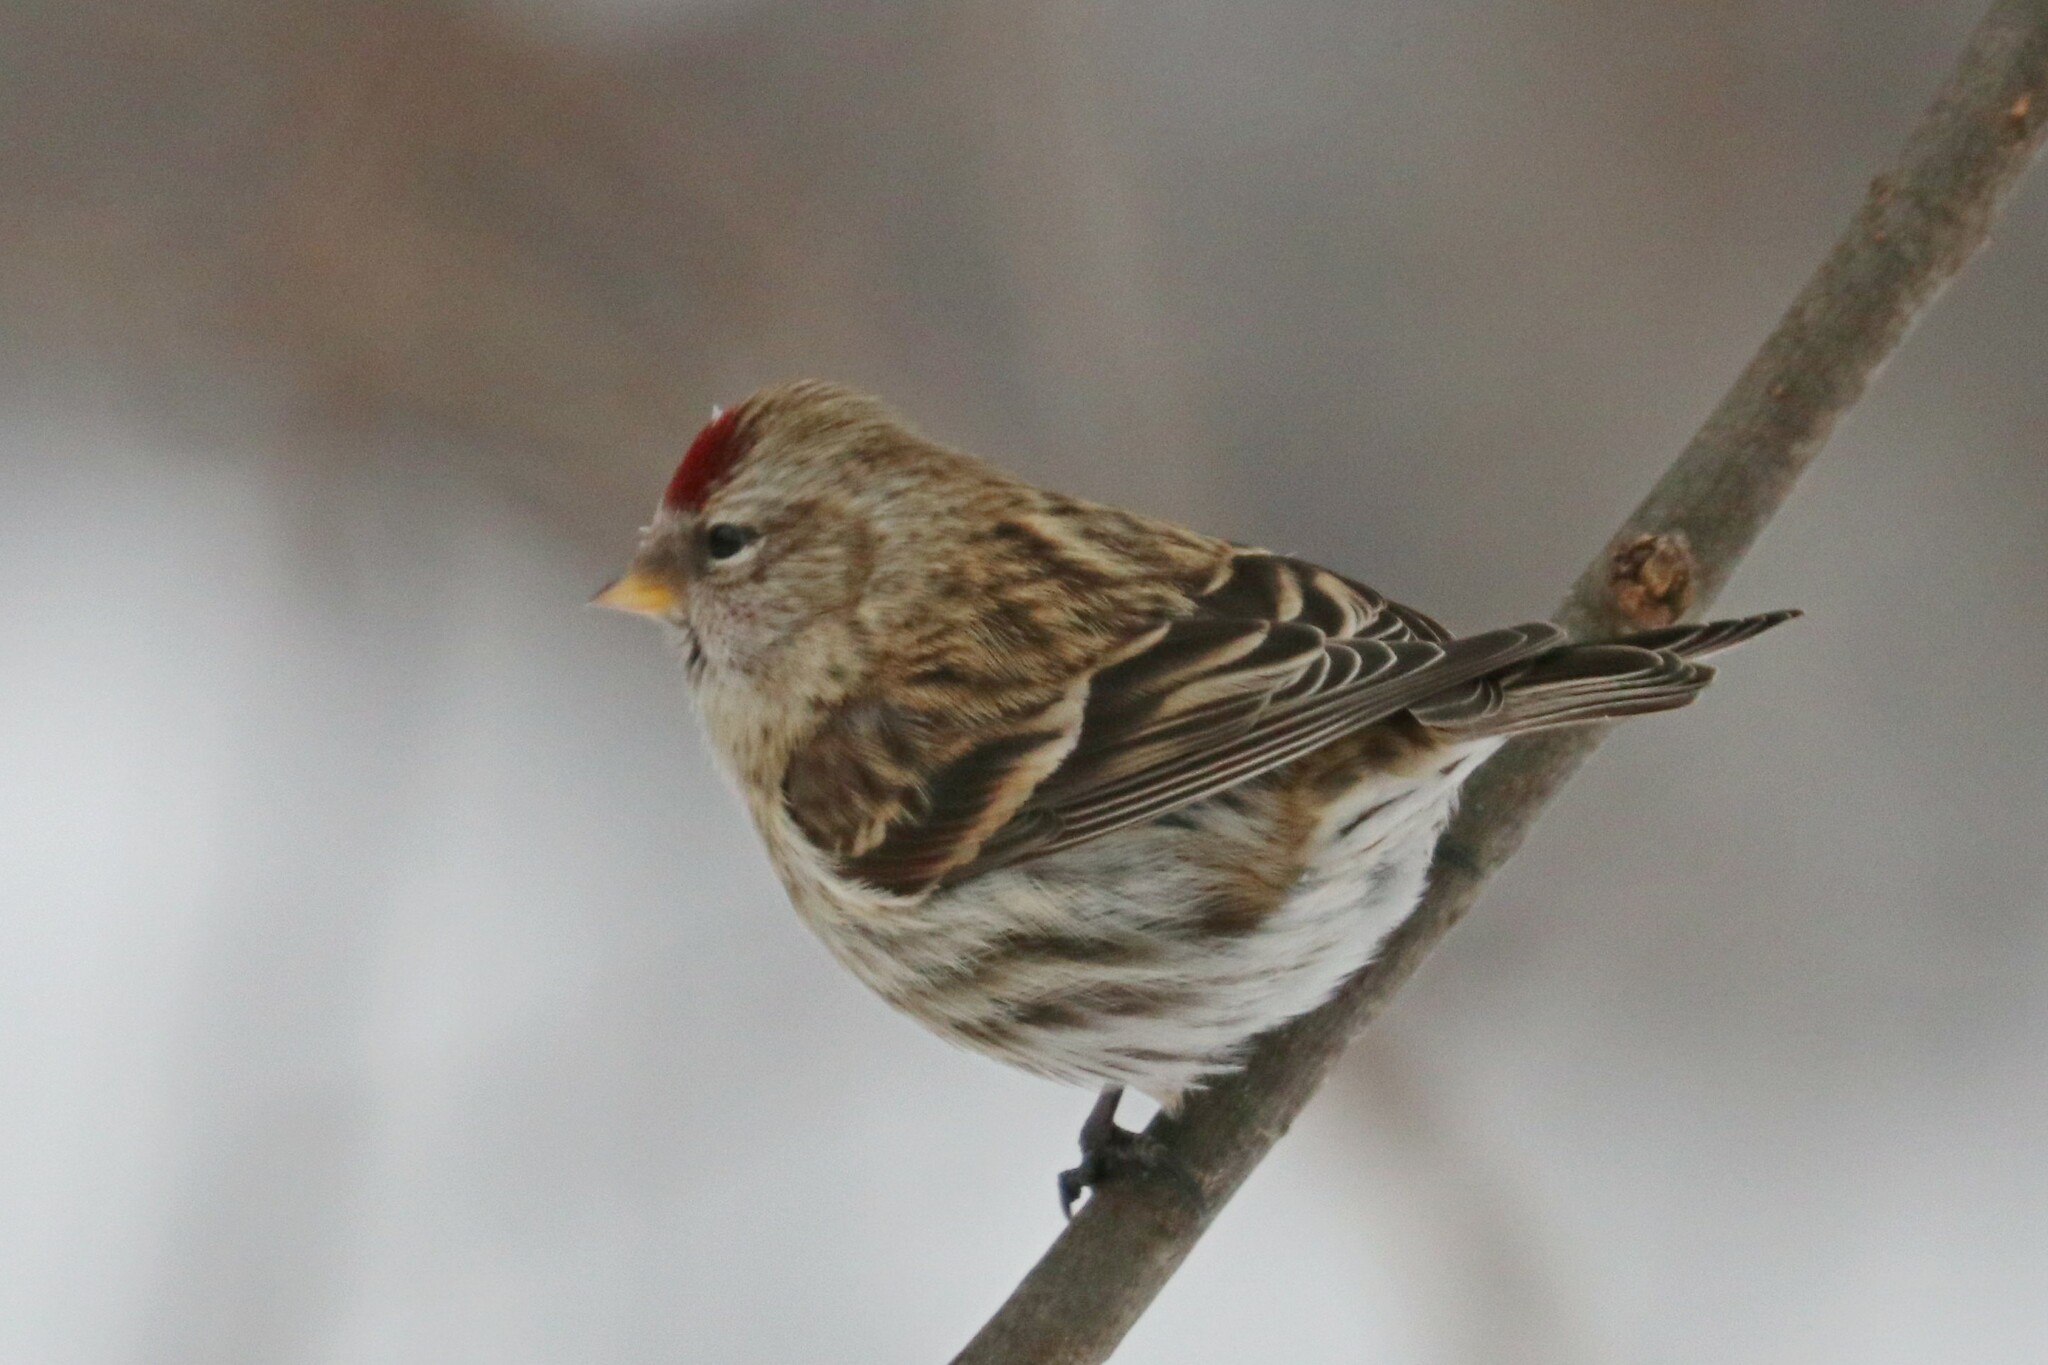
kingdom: Animalia
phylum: Chordata
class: Aves
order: Passeriformes
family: Fringillidae
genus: Acanthis
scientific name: Acanthis flammea
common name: Common redpoll
